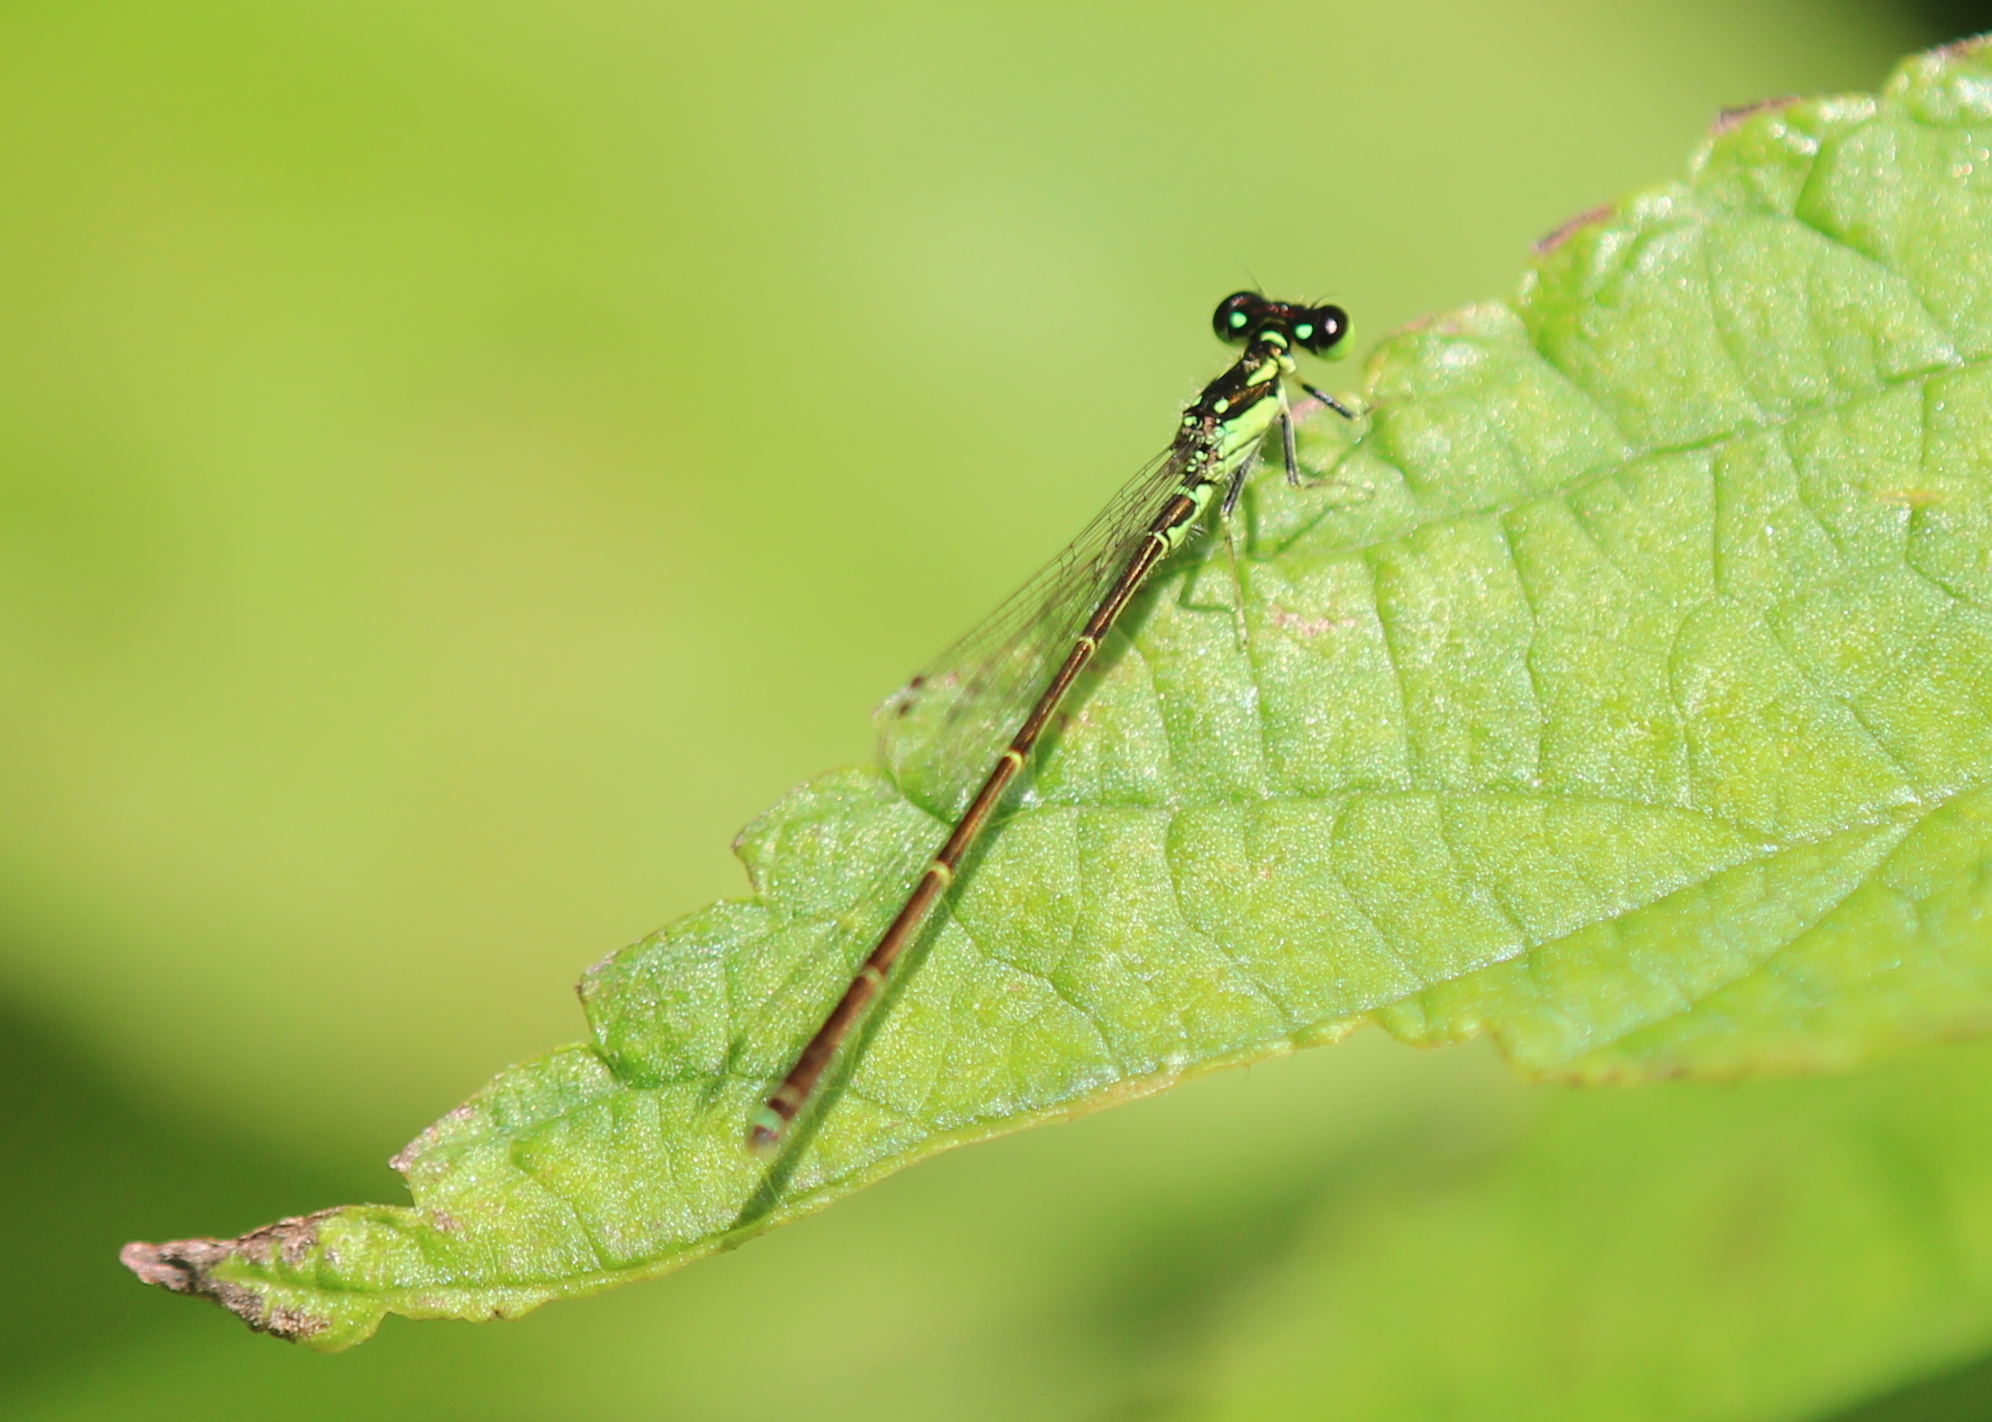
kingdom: Animalia
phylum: Arthropoda
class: Insecta
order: Odonata
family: Coenagrionidae
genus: Ischnura
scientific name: Ischnura posita
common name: Fragile forktail
